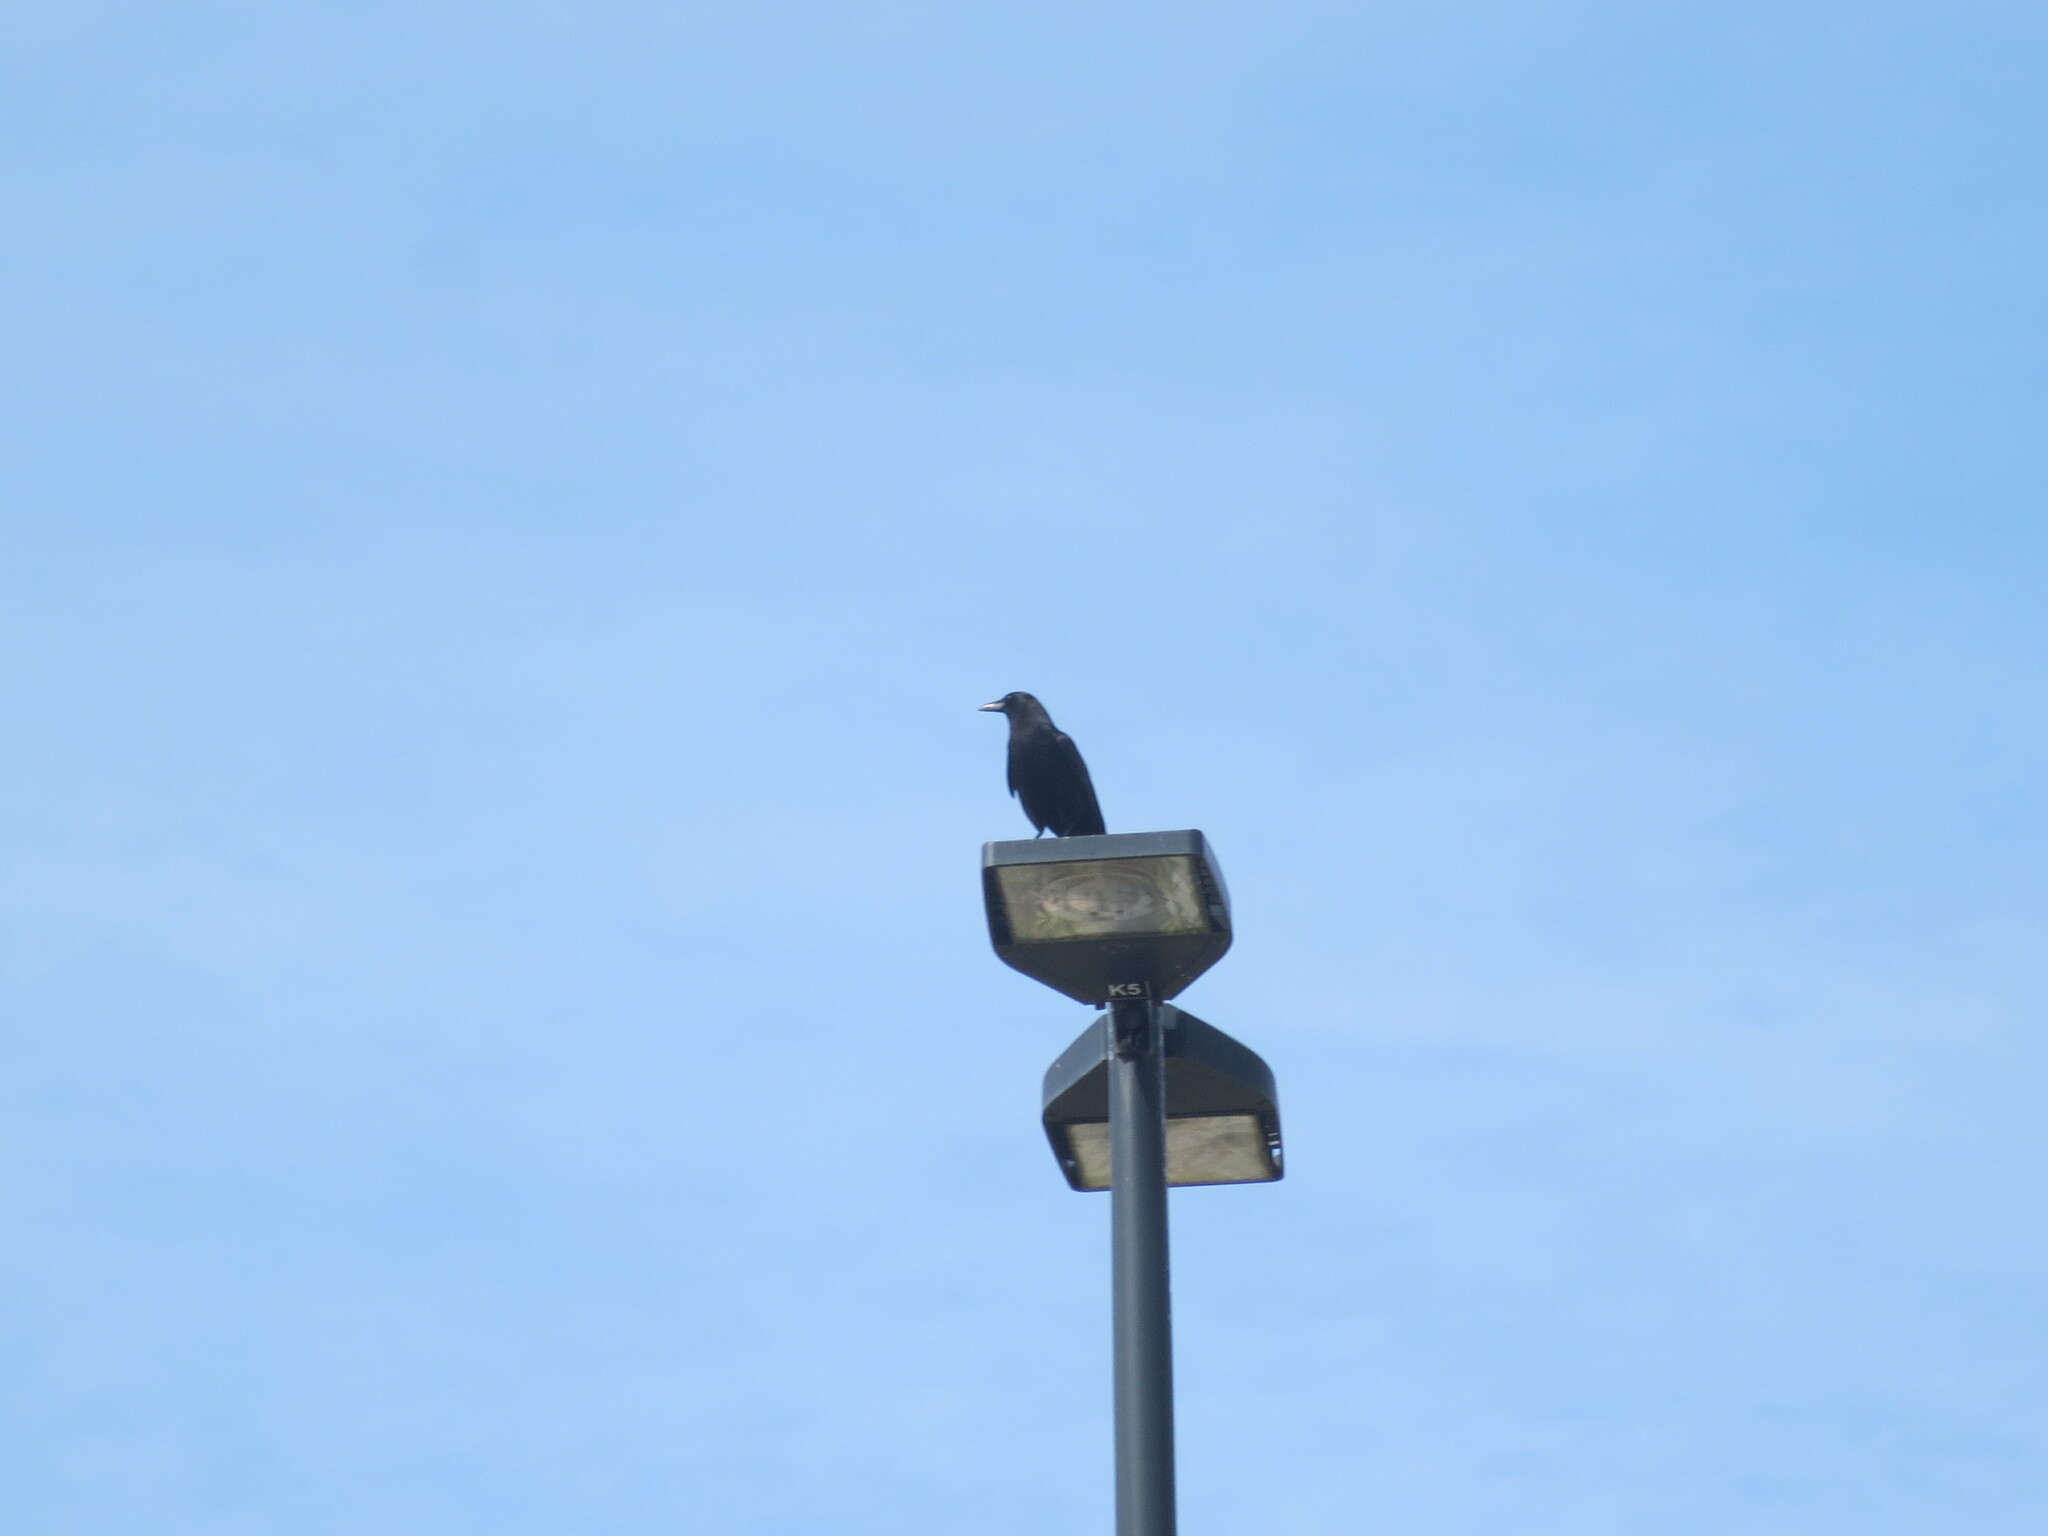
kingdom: Animalia
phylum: Chordata
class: Aves
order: Passeriformes
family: Corvidae
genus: Corvus
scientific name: Corvus
